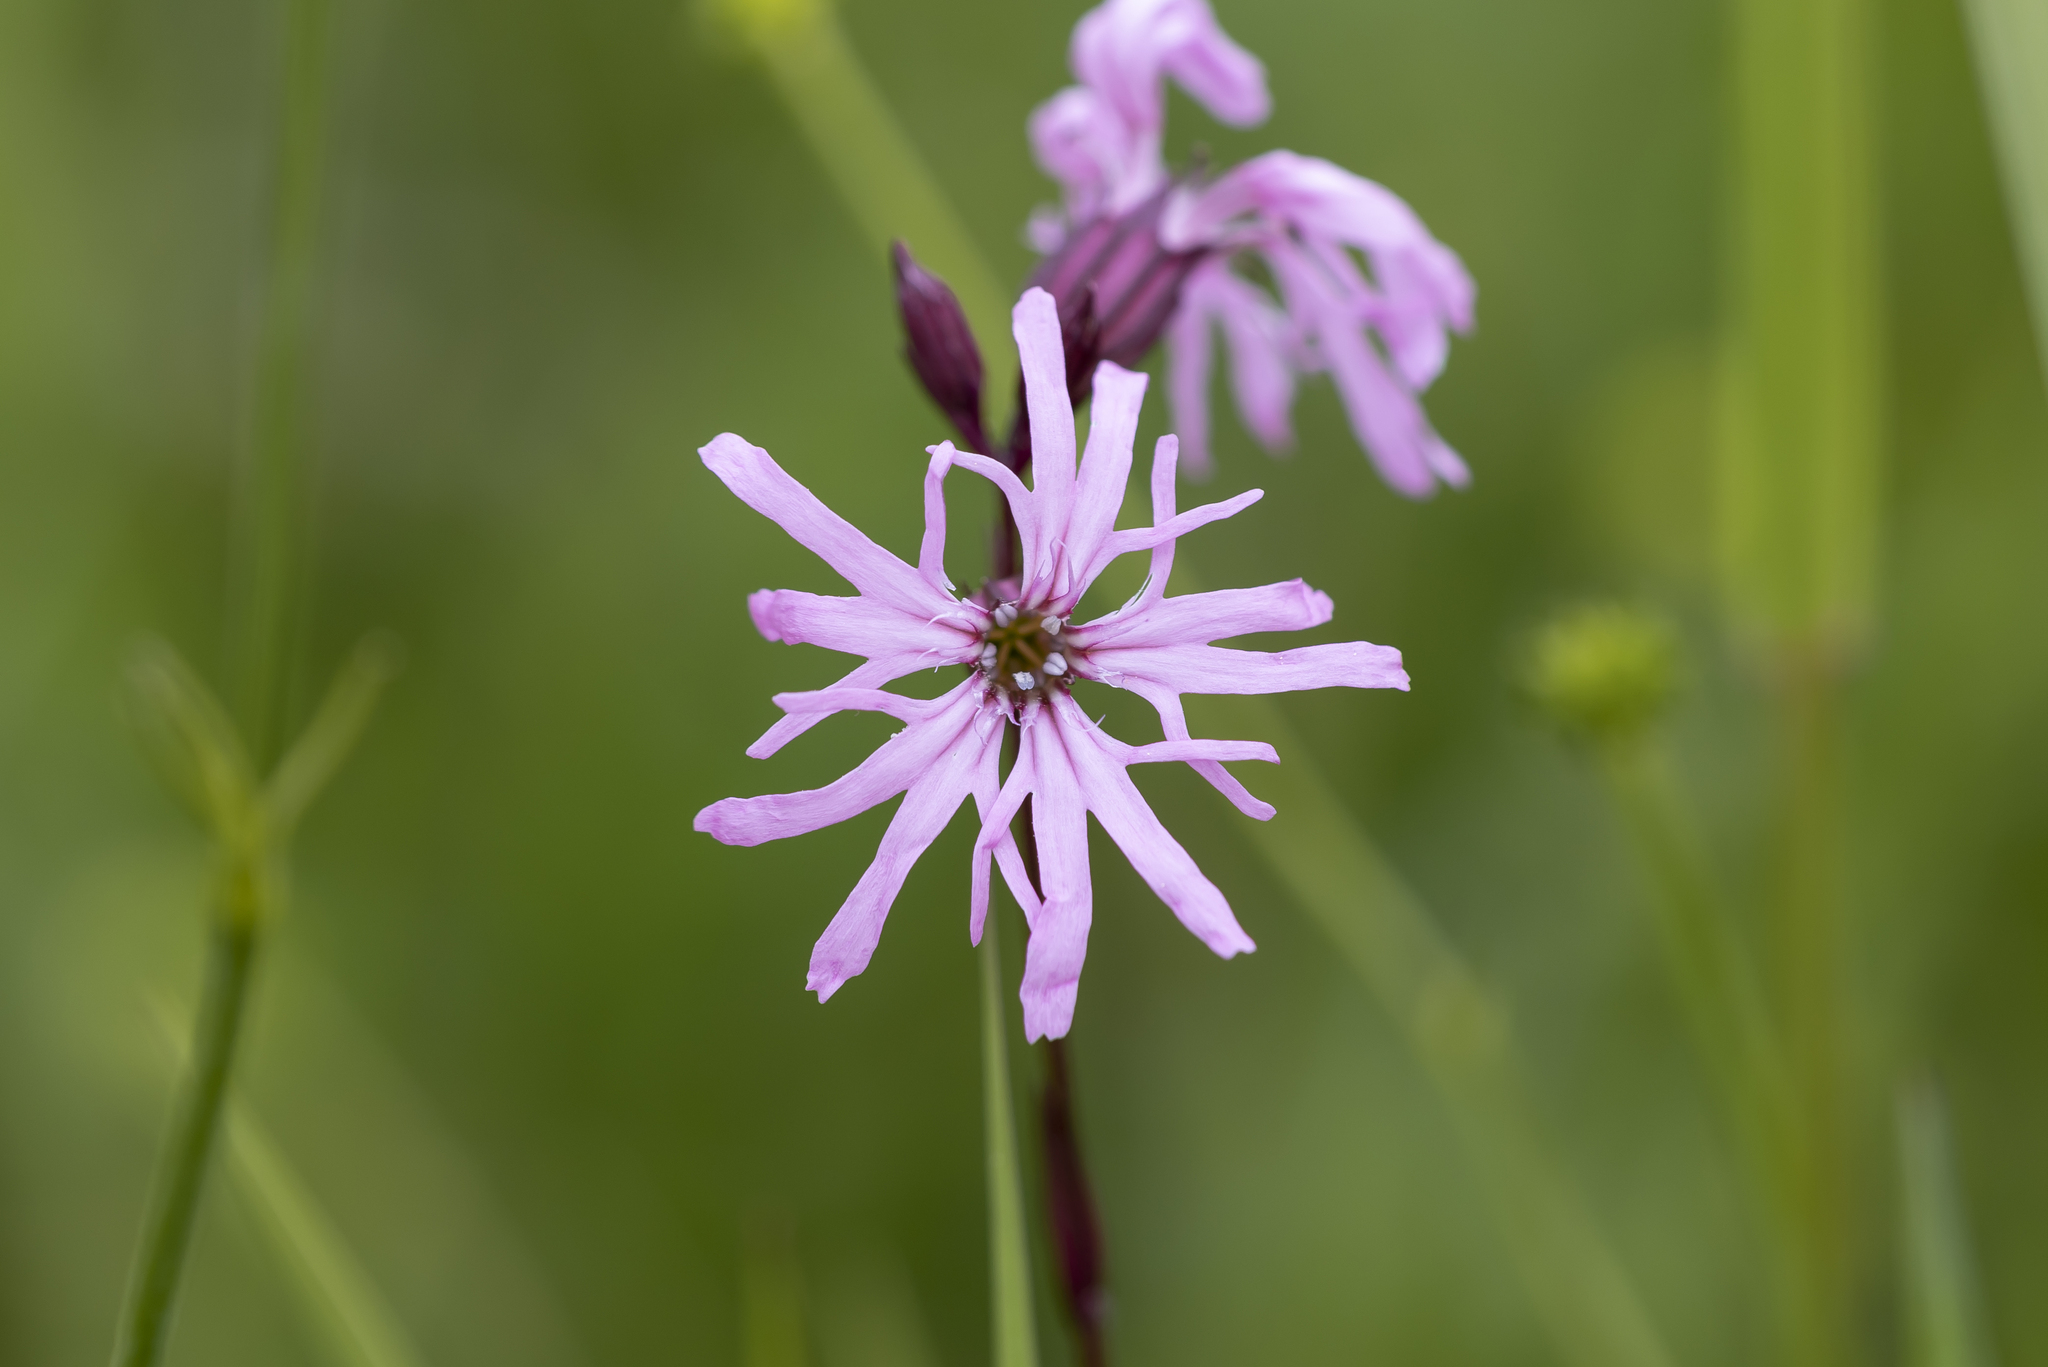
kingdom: Plantae
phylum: Tracheophyta
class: Magnoliopsida
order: Caryophyllales
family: Caryophyllaceae
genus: Silene
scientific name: Silene flos-cuculi
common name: Ragged-robin
